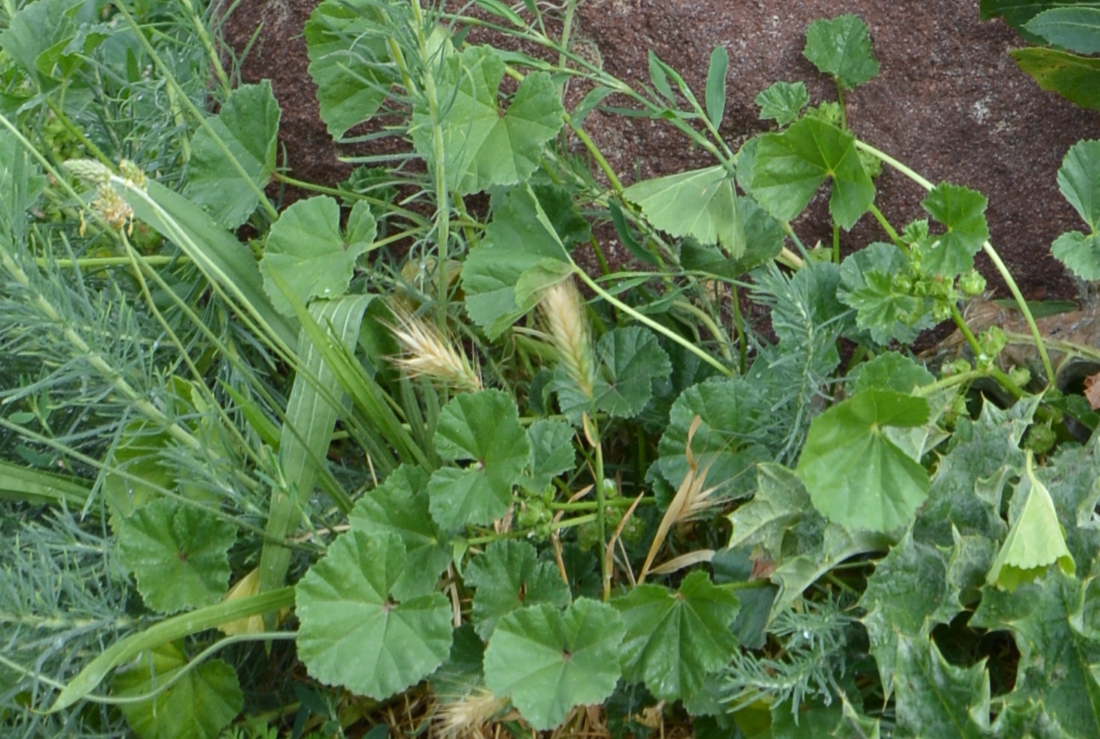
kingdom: Plantae
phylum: Tracheophyta
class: Magnoliopsida
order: Malvales
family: Malvaceae
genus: Malva
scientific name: Malva neglecta
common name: Common mallow
